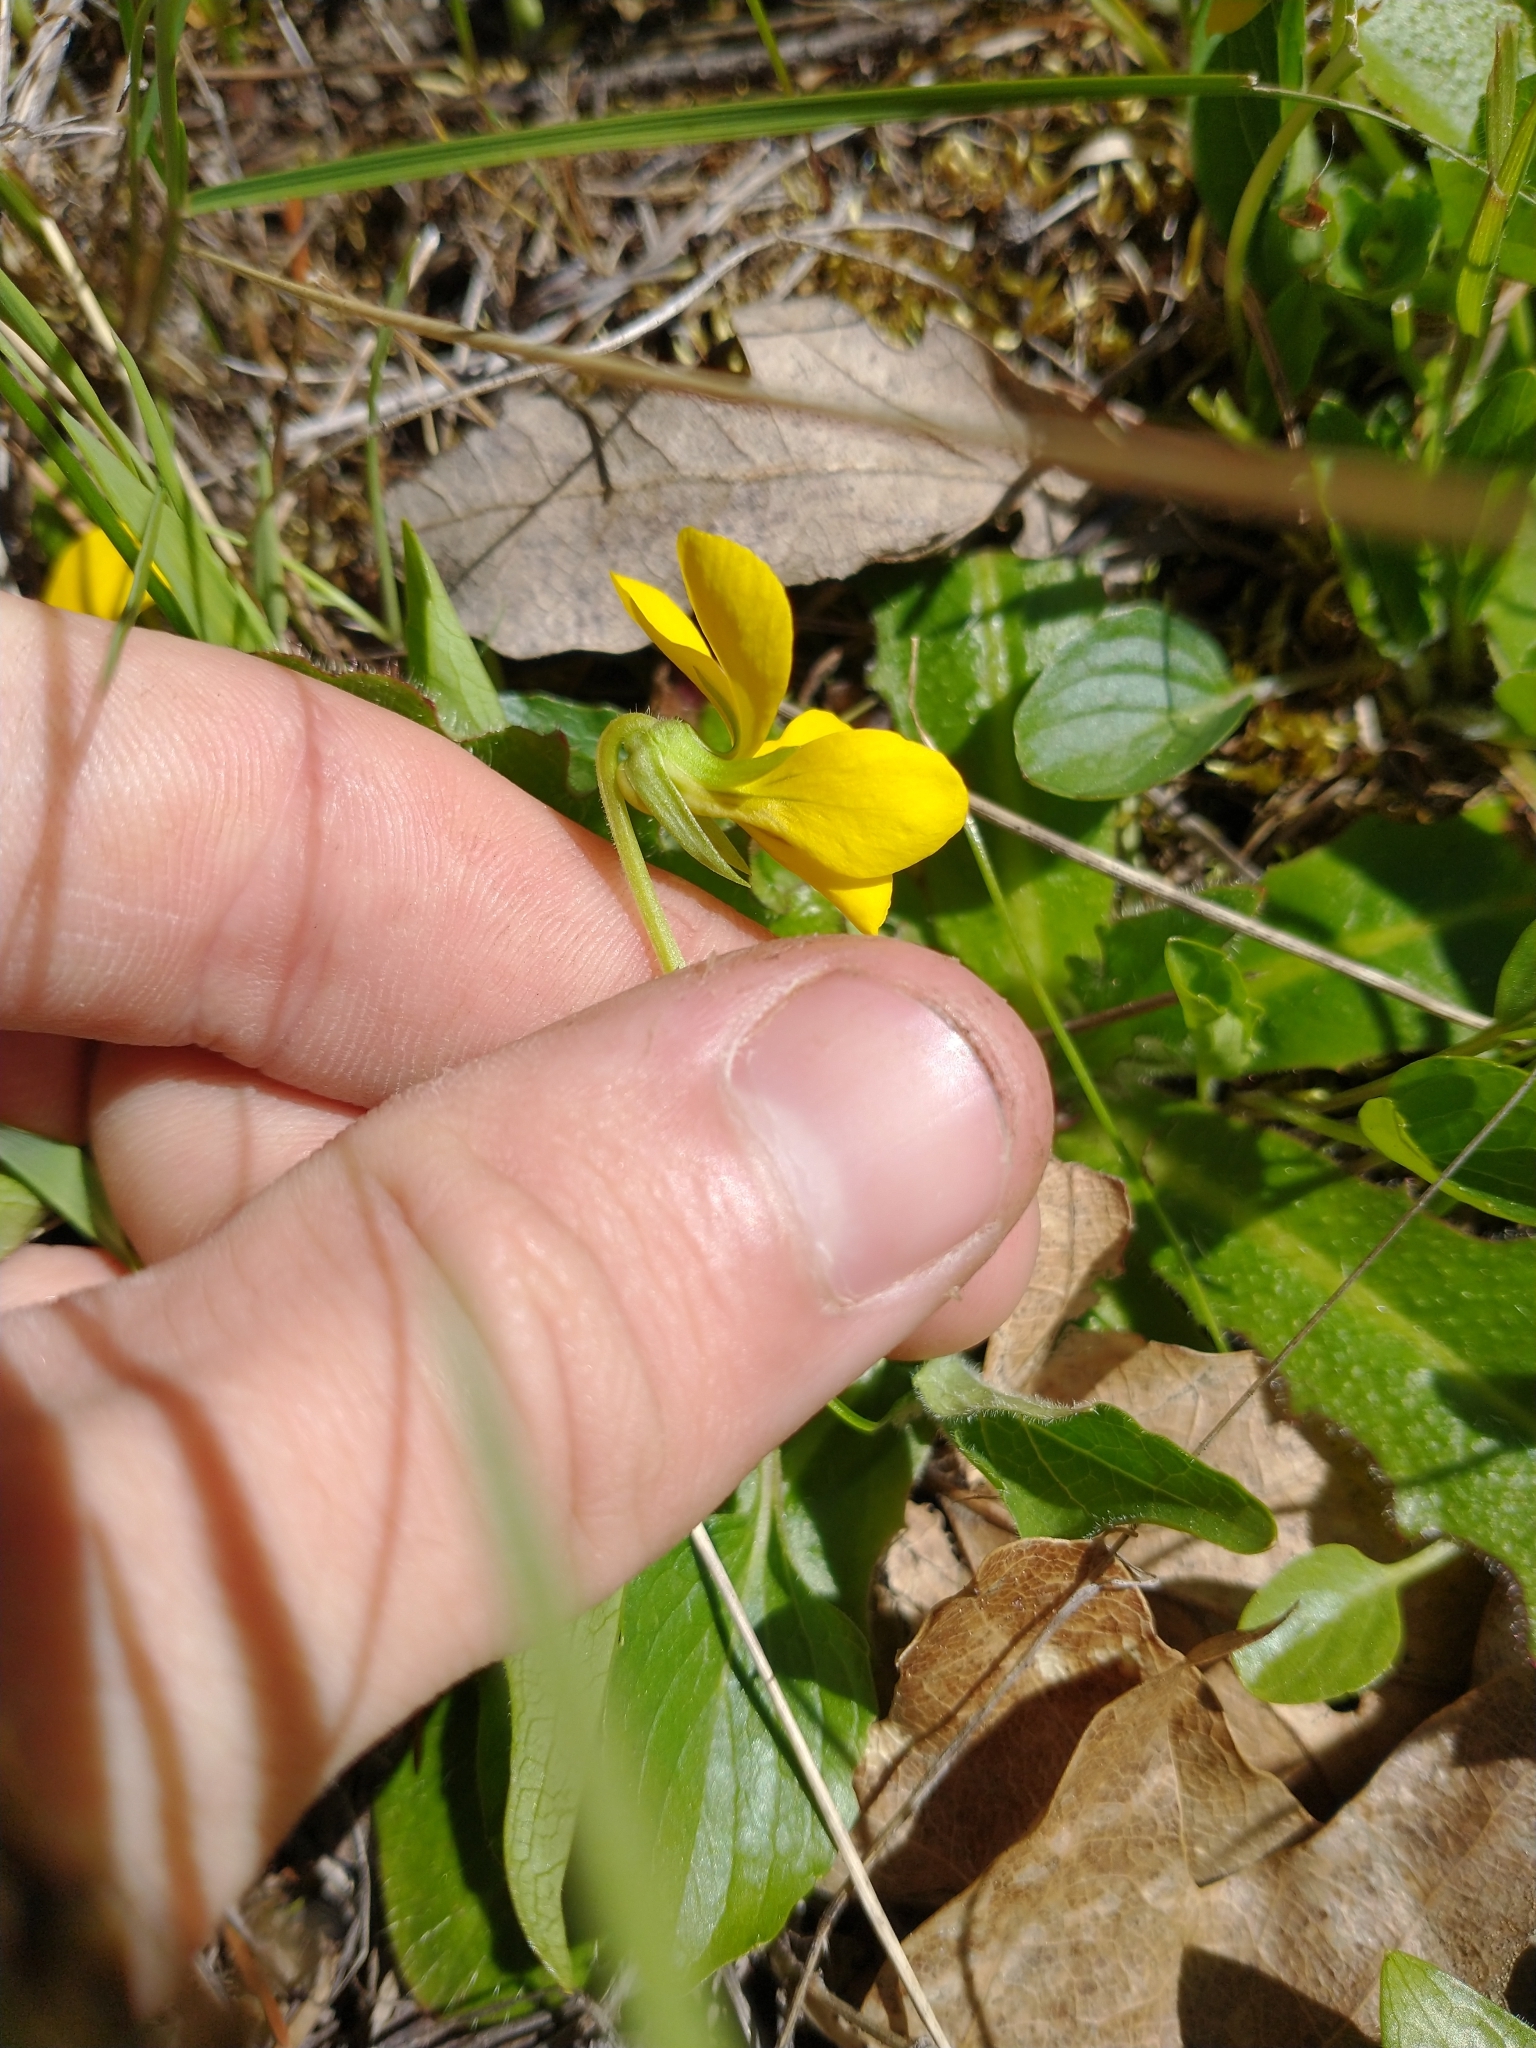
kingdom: Plantae
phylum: Tracheophyta
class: Magnoliopsida
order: Malpighiales
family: Violaceae
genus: Viola
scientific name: Viola praemorsa
